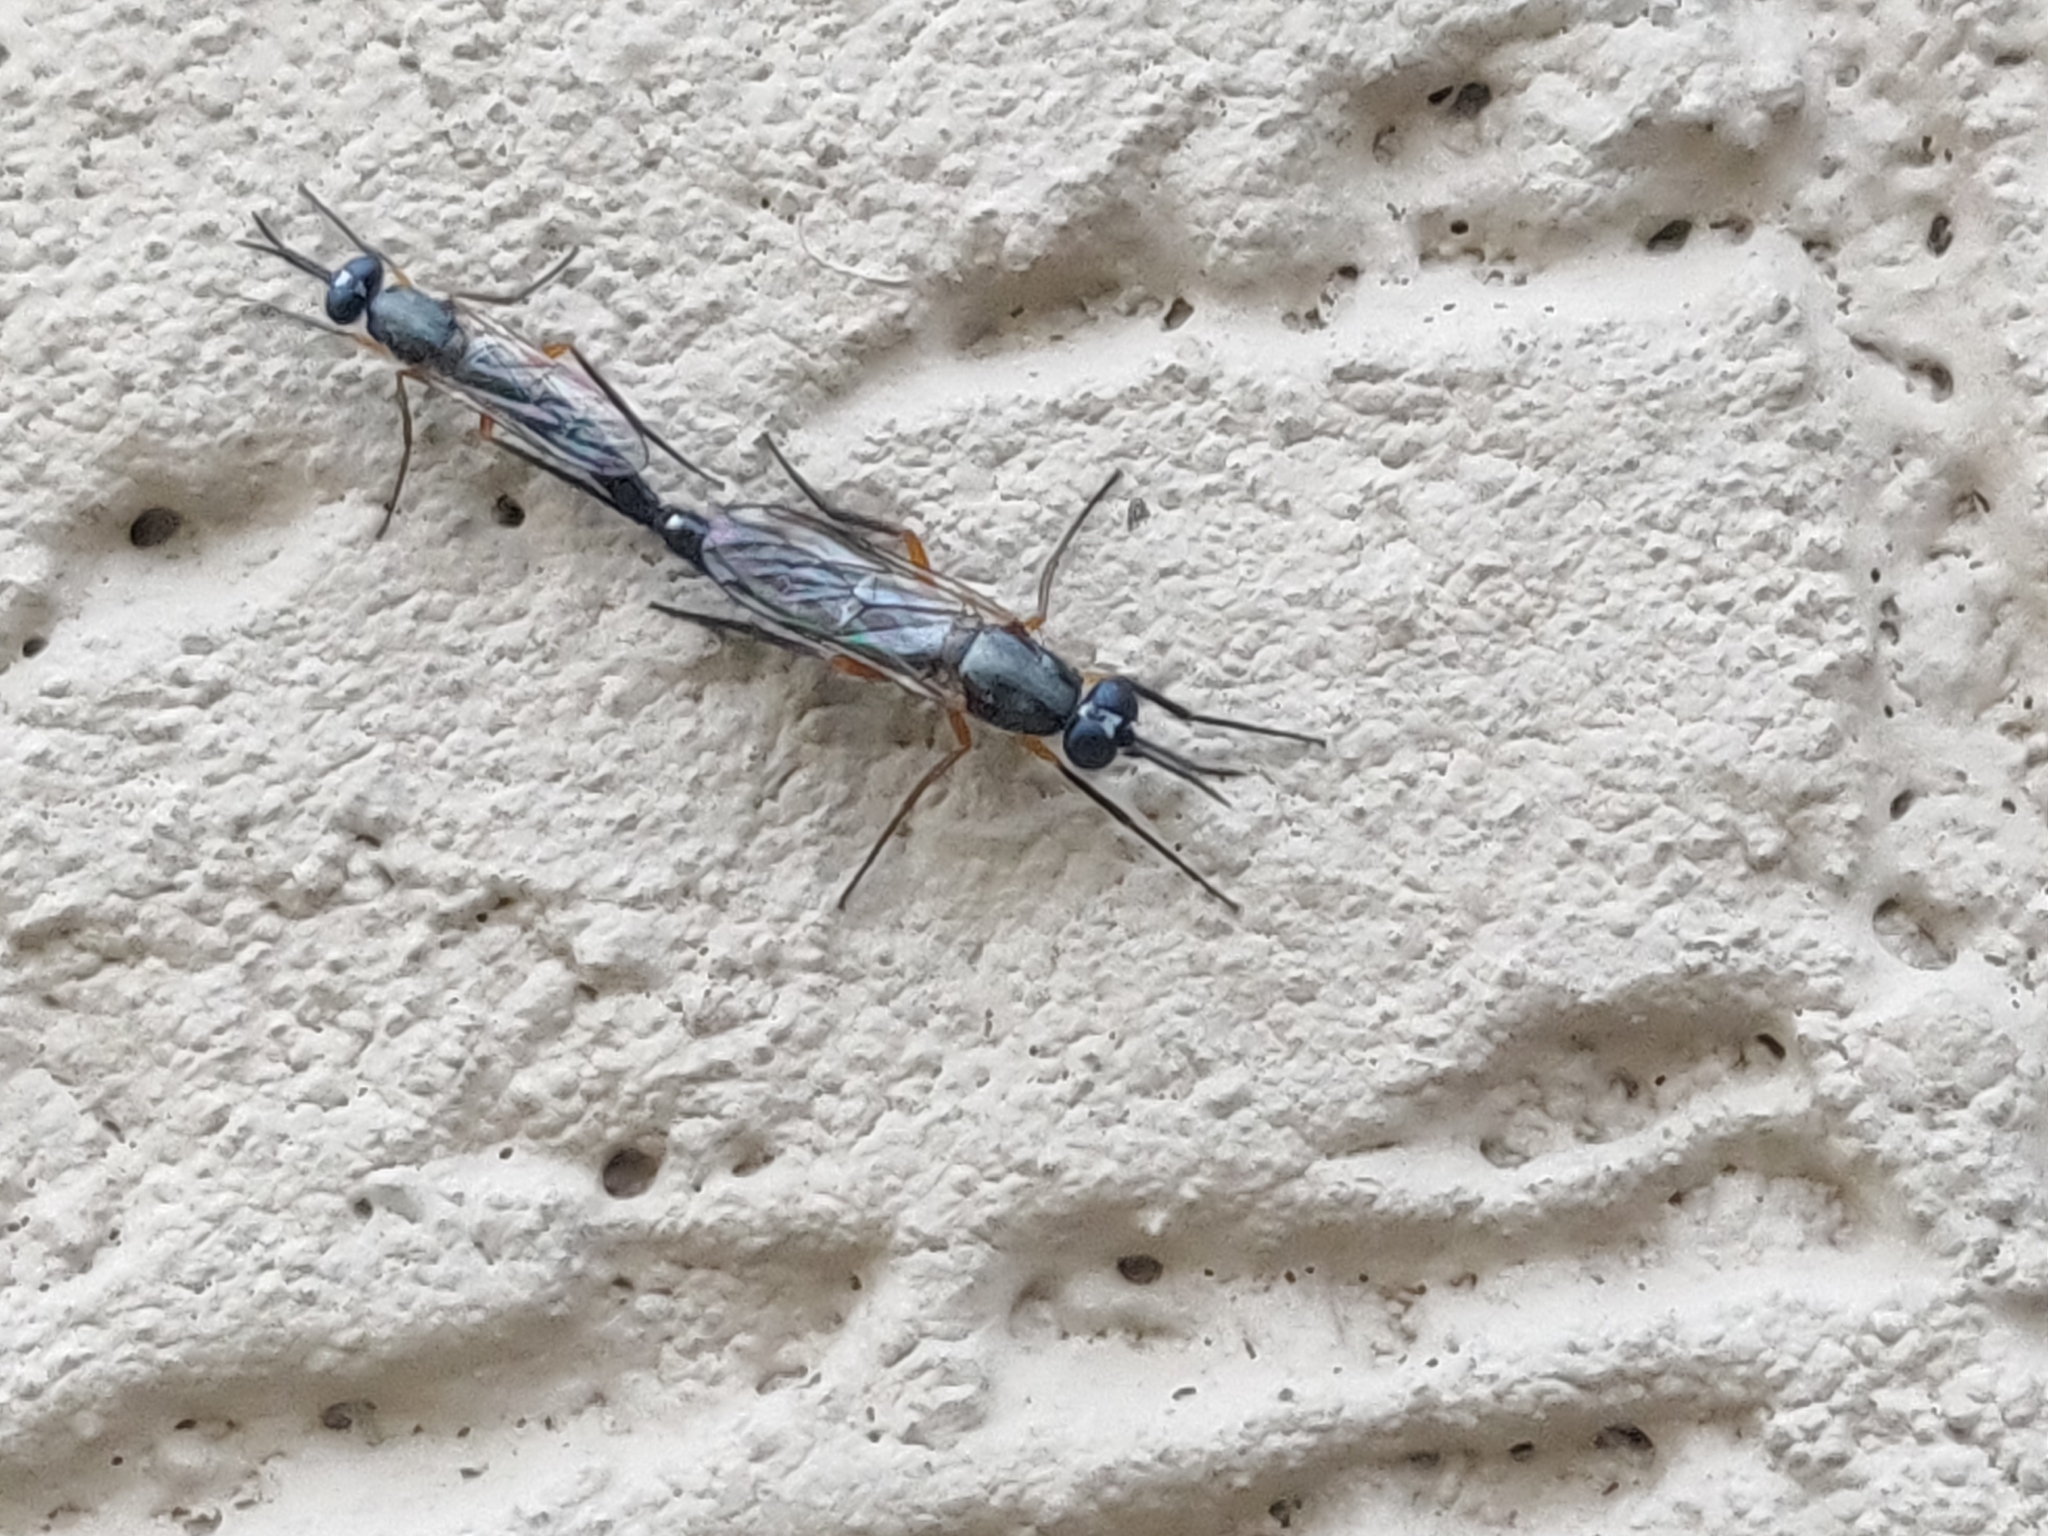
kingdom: Animalia
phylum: Arthropoda
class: Insecta
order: Diptera
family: Therevidae
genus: Phycus
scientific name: Phycus brunneus
